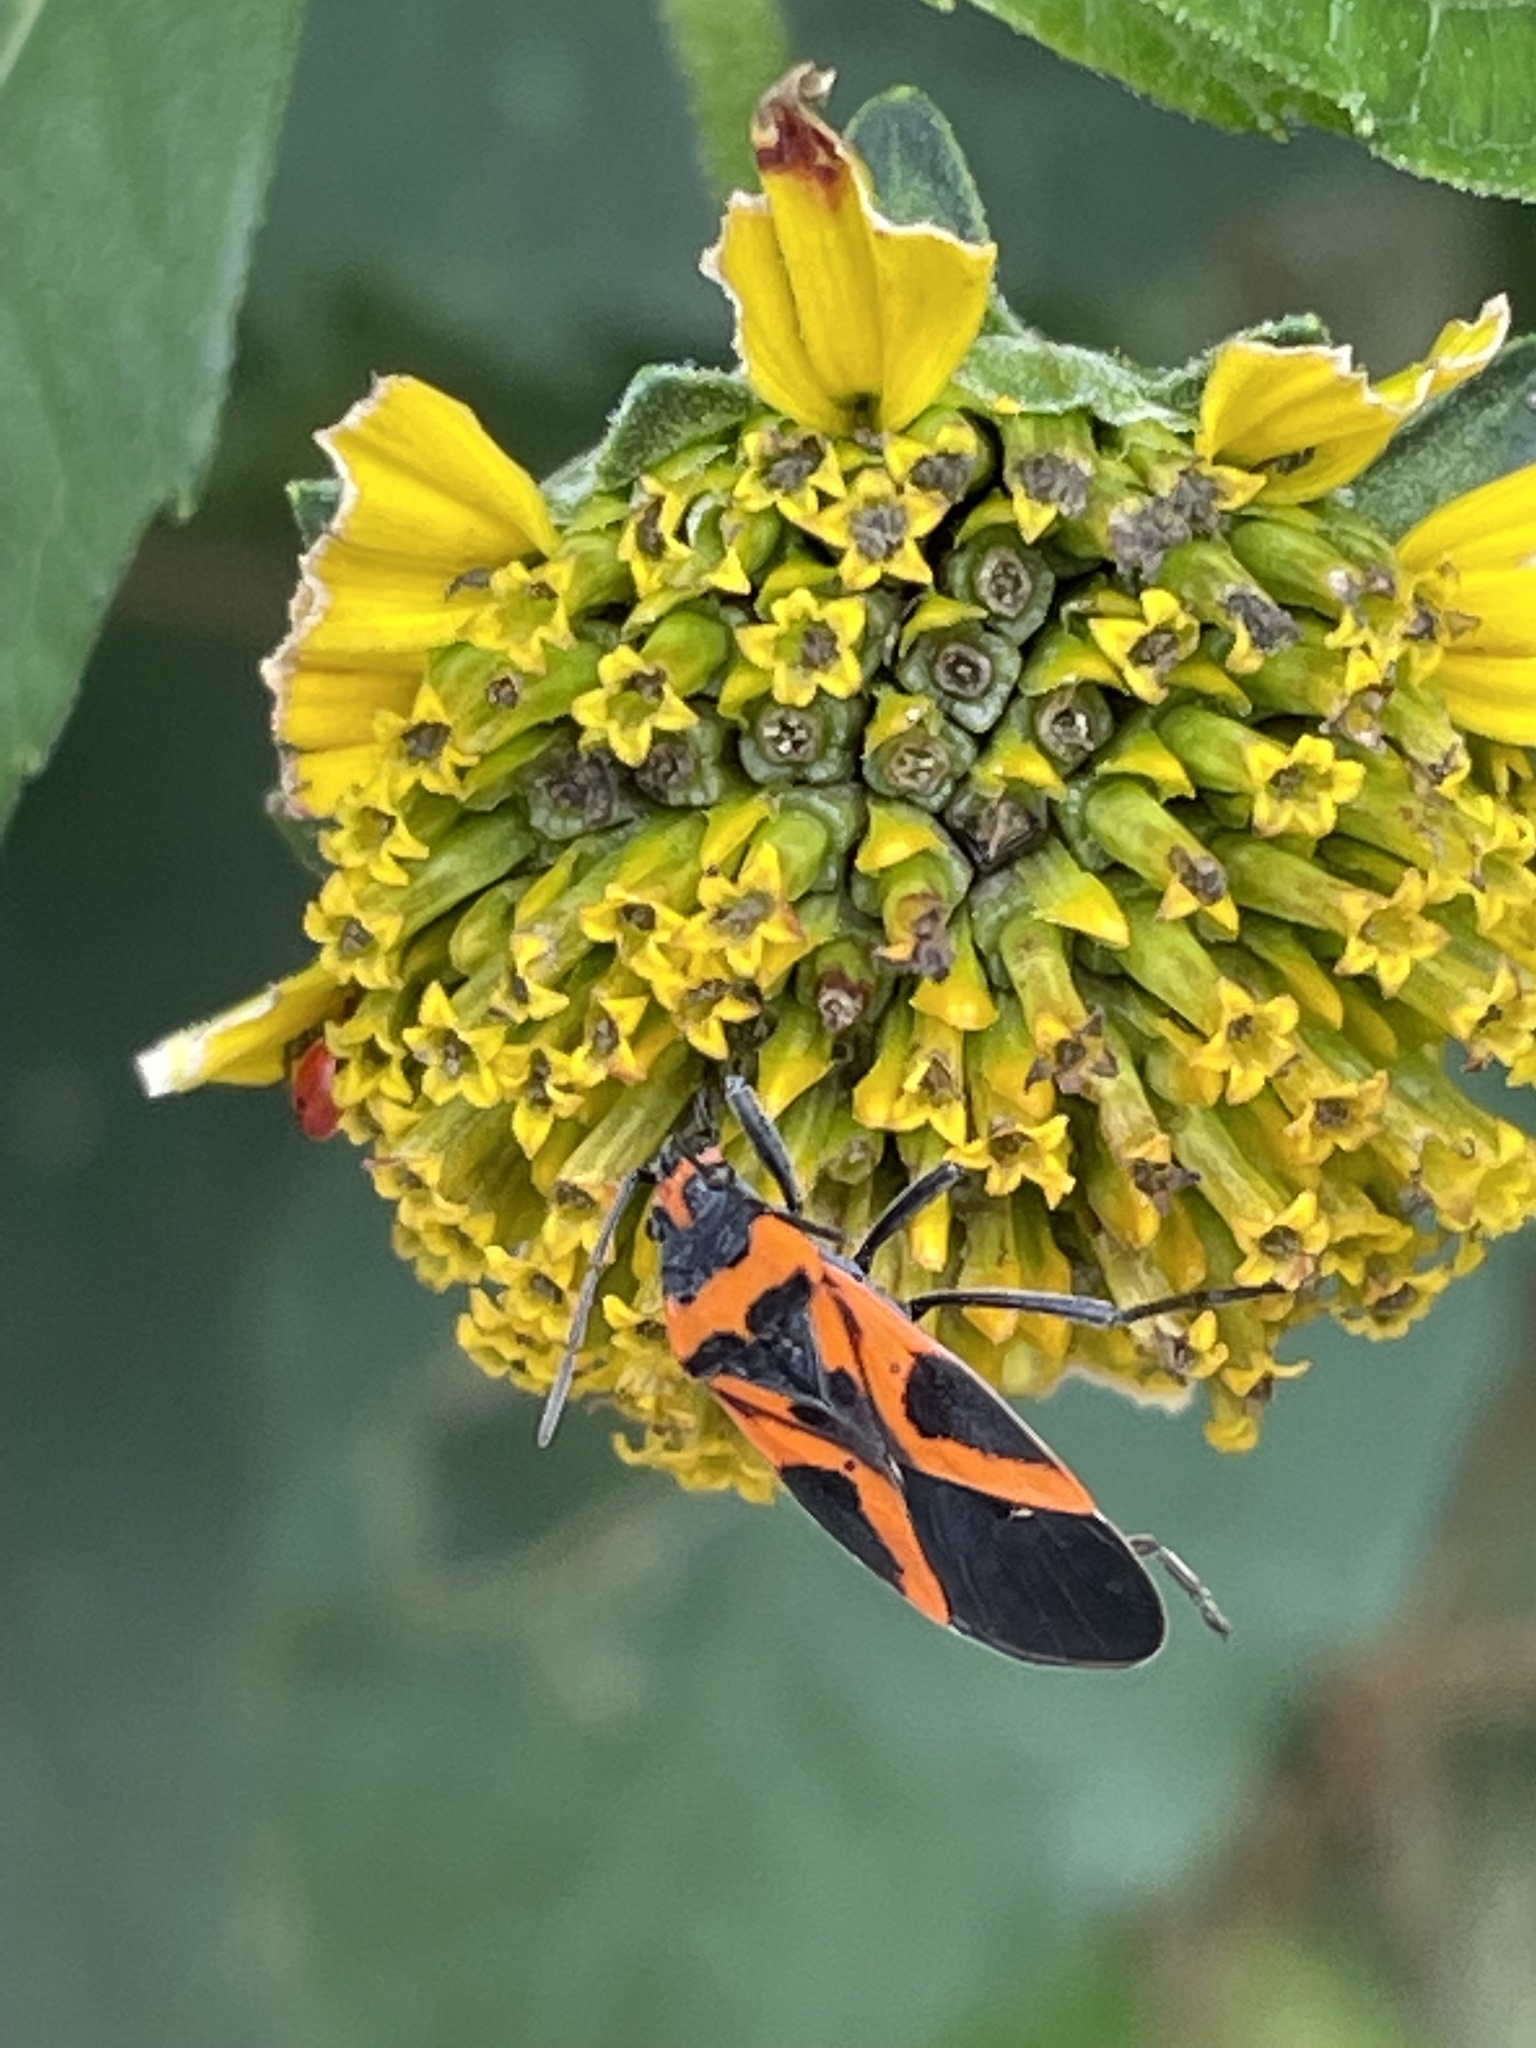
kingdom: Animalia
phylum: Arthropoda
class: Insecta
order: Hemiptera
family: Lygaeidae
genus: Lygaeus
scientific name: Lygaeus turcicus
